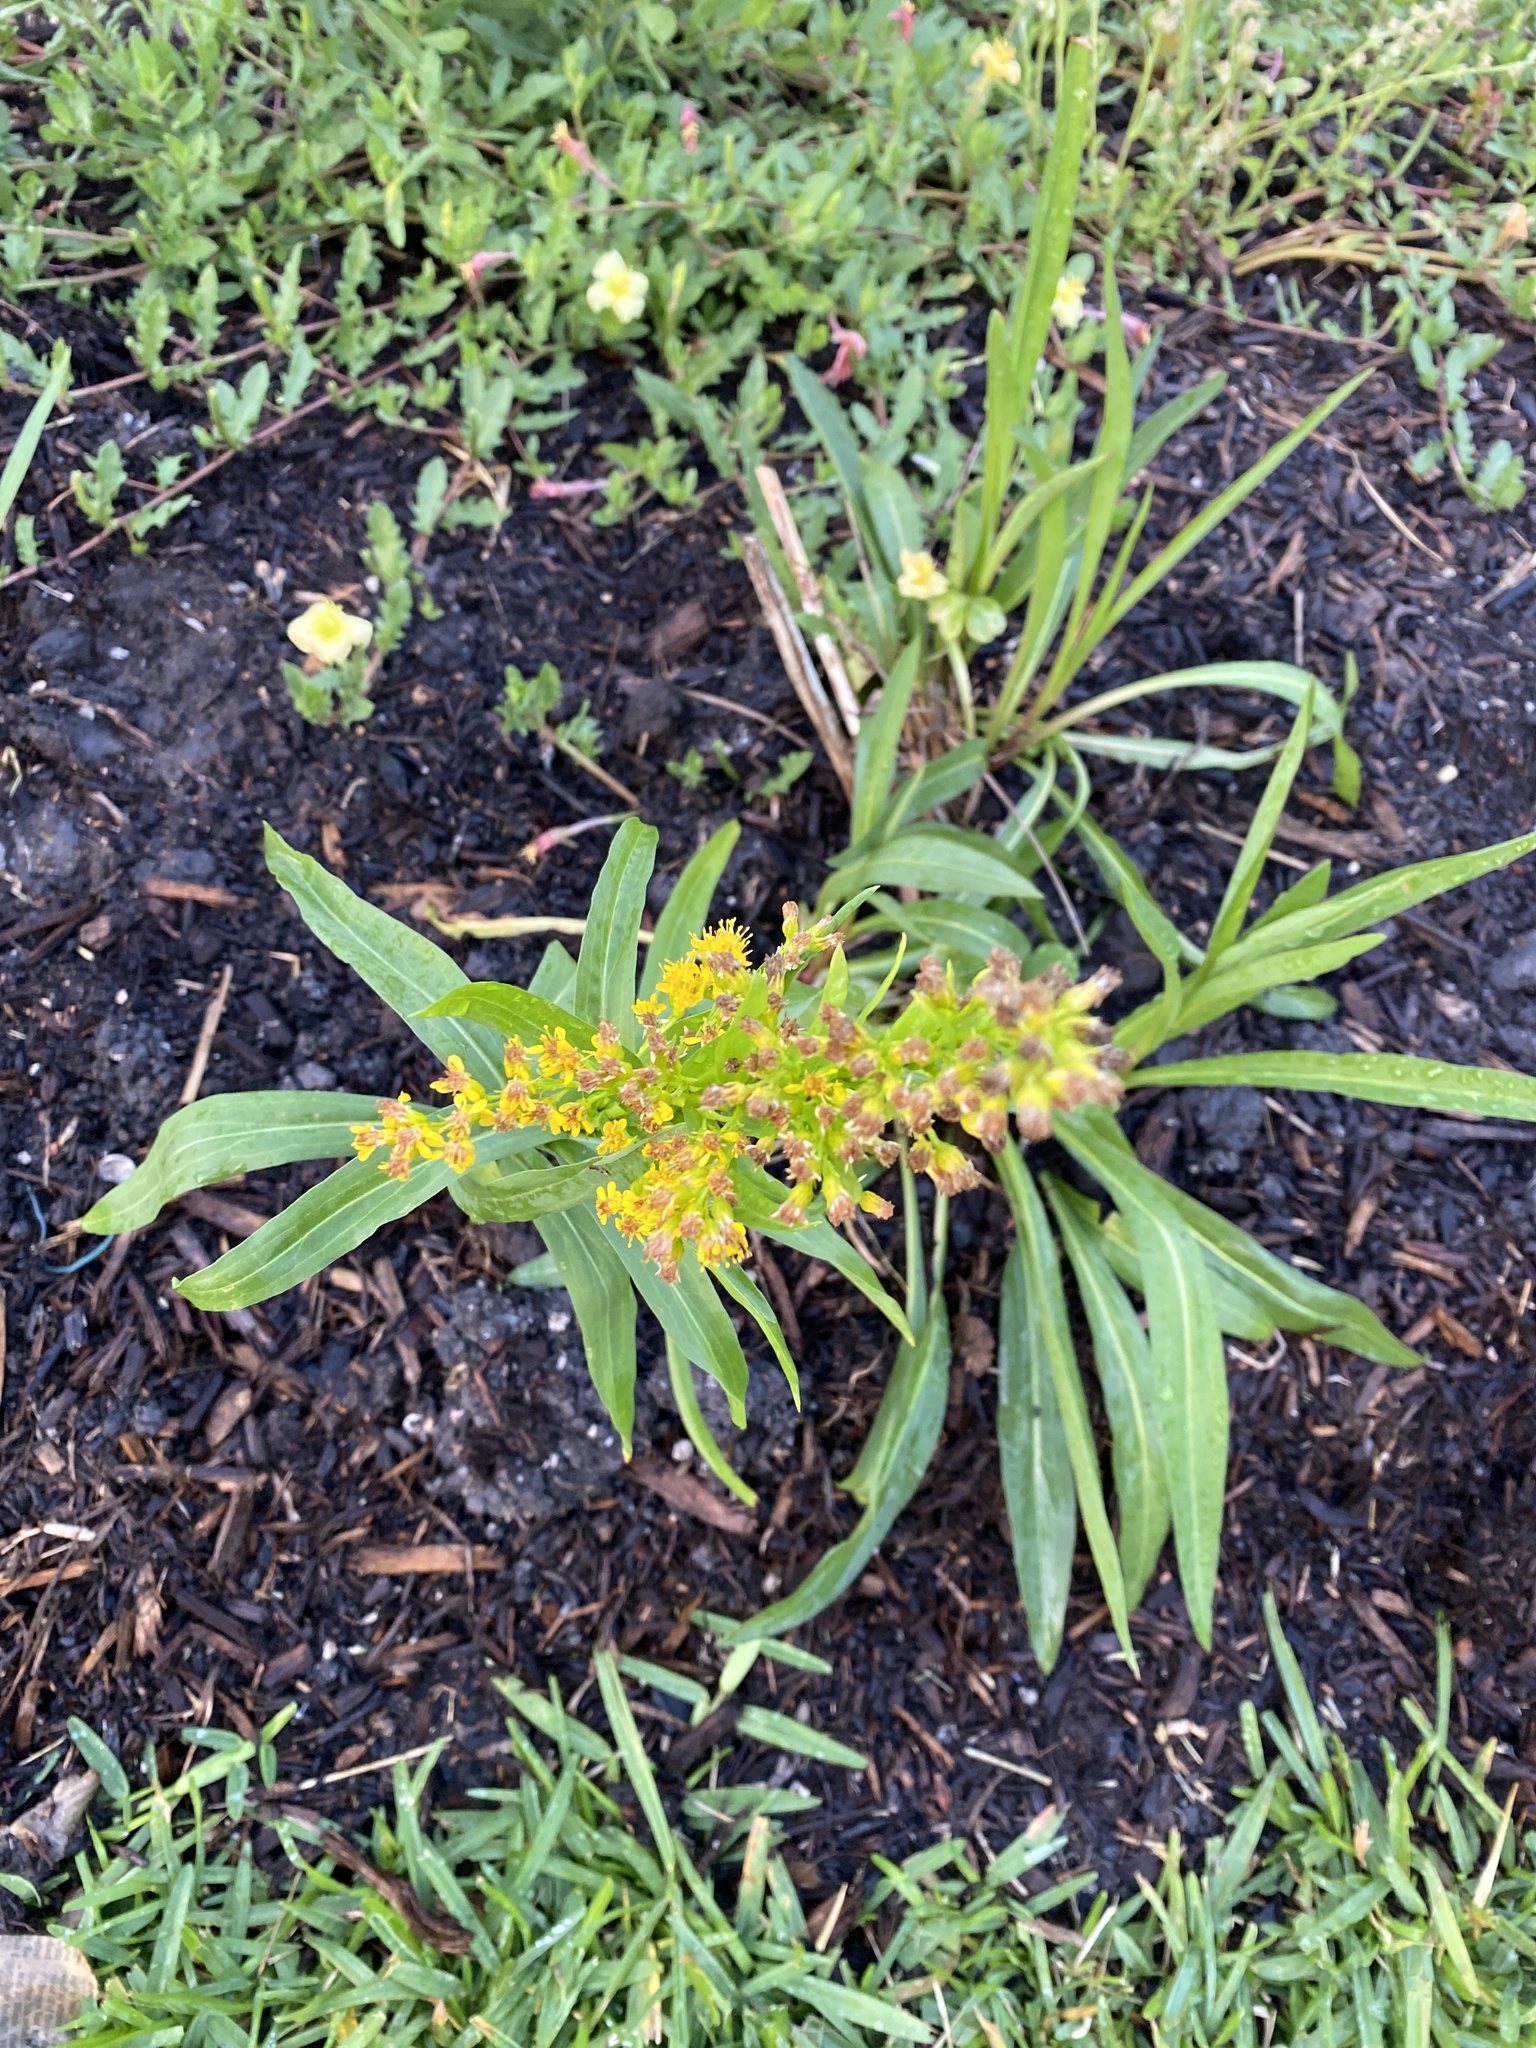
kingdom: Plantae
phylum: Tracheophyta
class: Magnoliopsida
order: Asterales
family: Asteraceae
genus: Solidago
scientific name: Solidago mexicana
